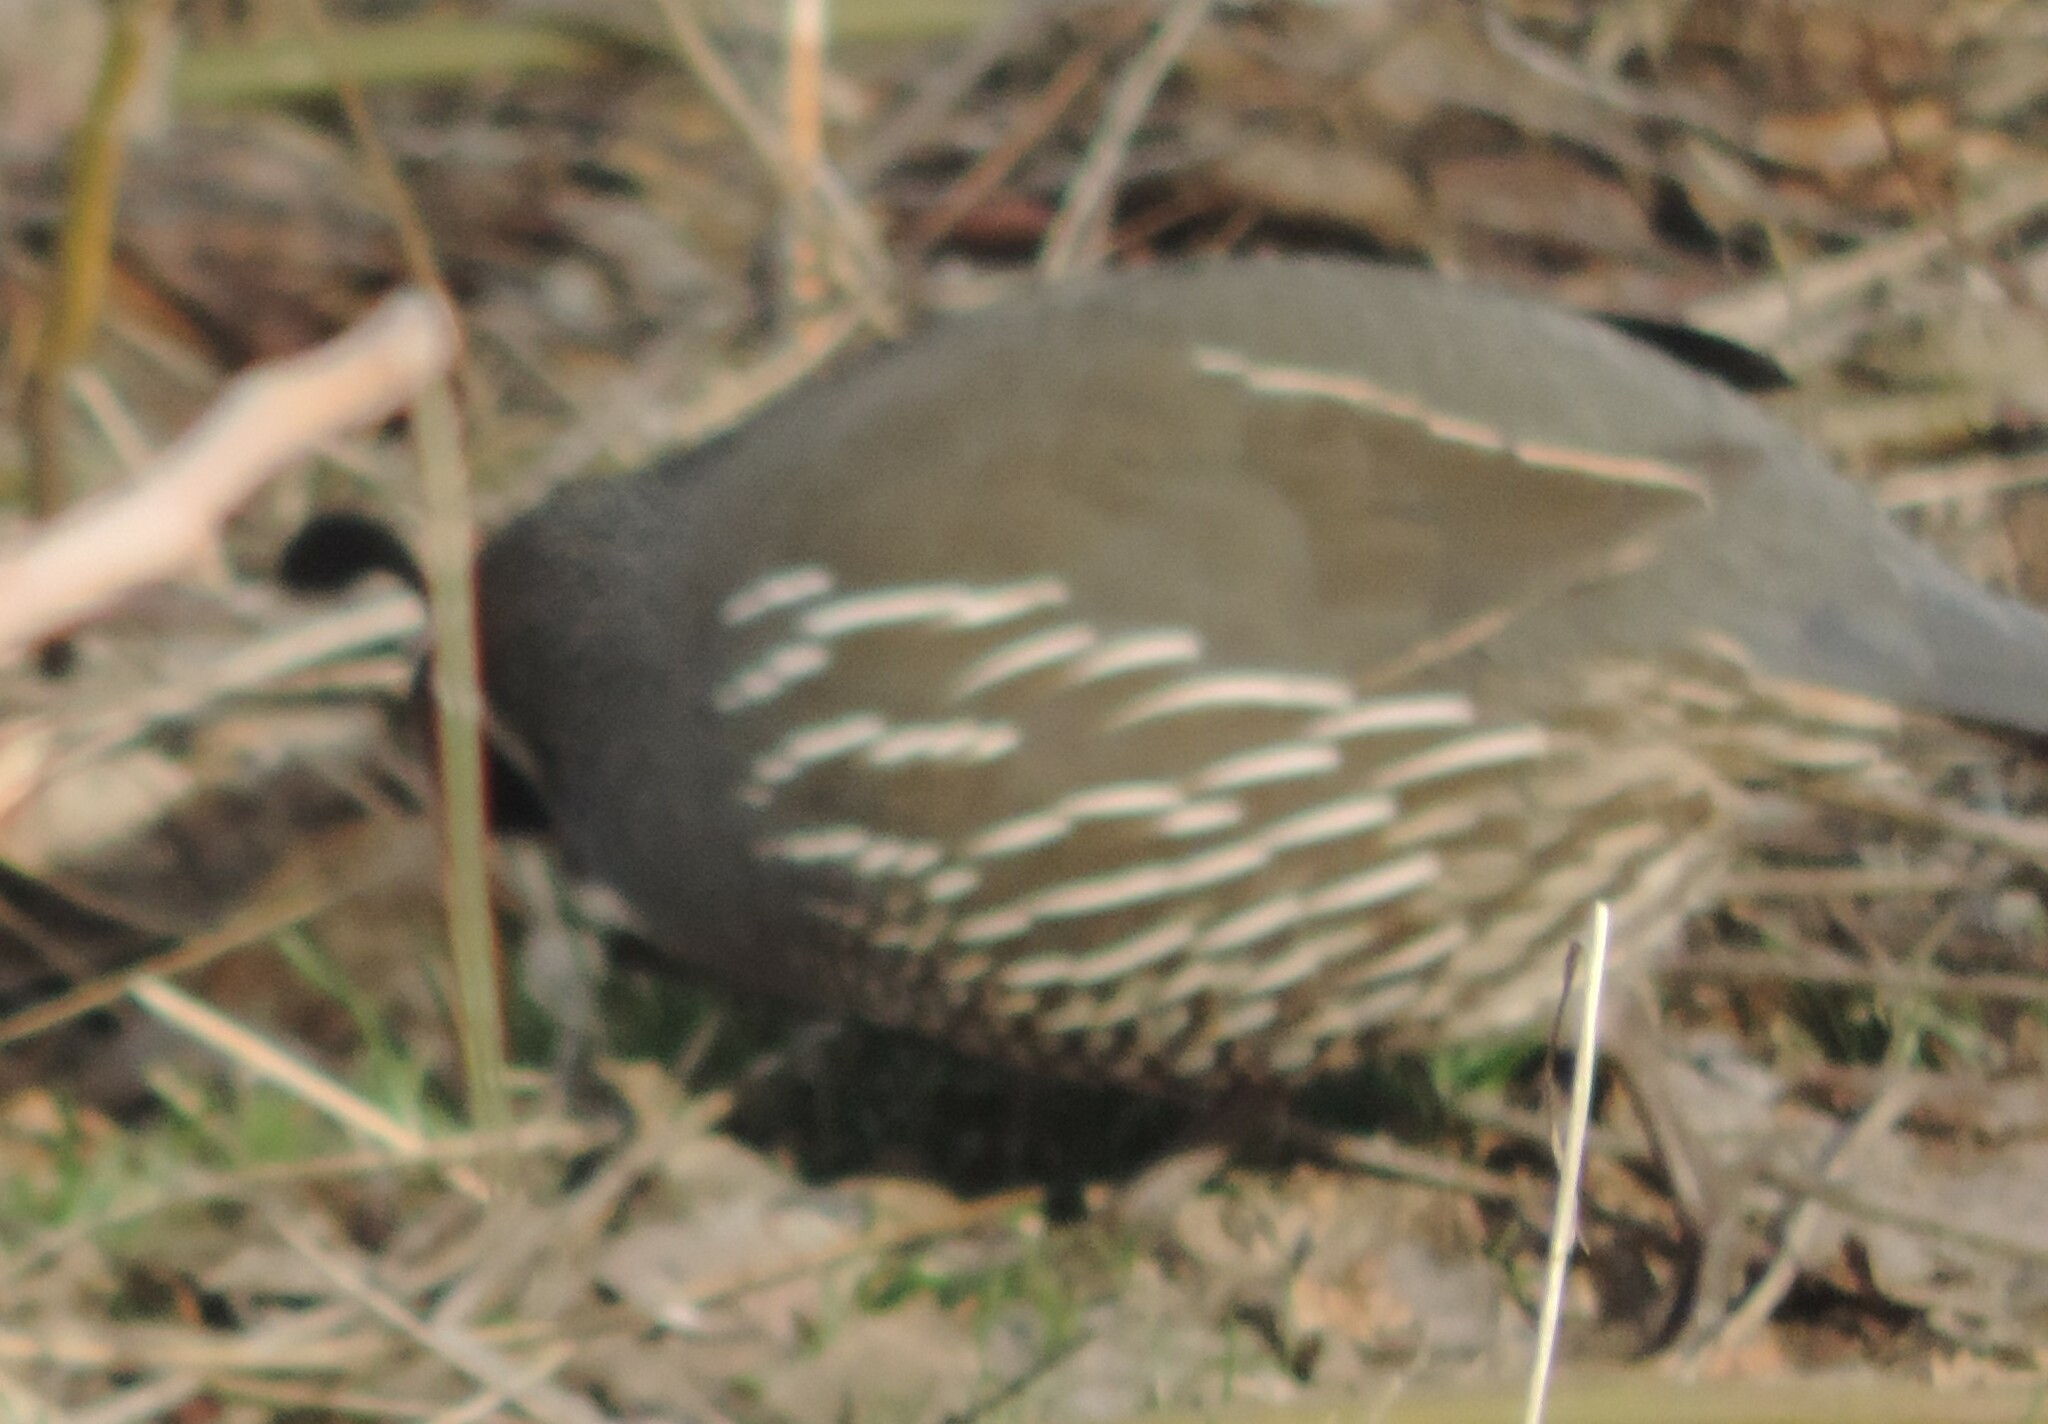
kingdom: Animalia
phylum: Chordata
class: Aves
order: Galliformes
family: Odontophoridae
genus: Callipepla
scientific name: Callipepla californica
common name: California quail
